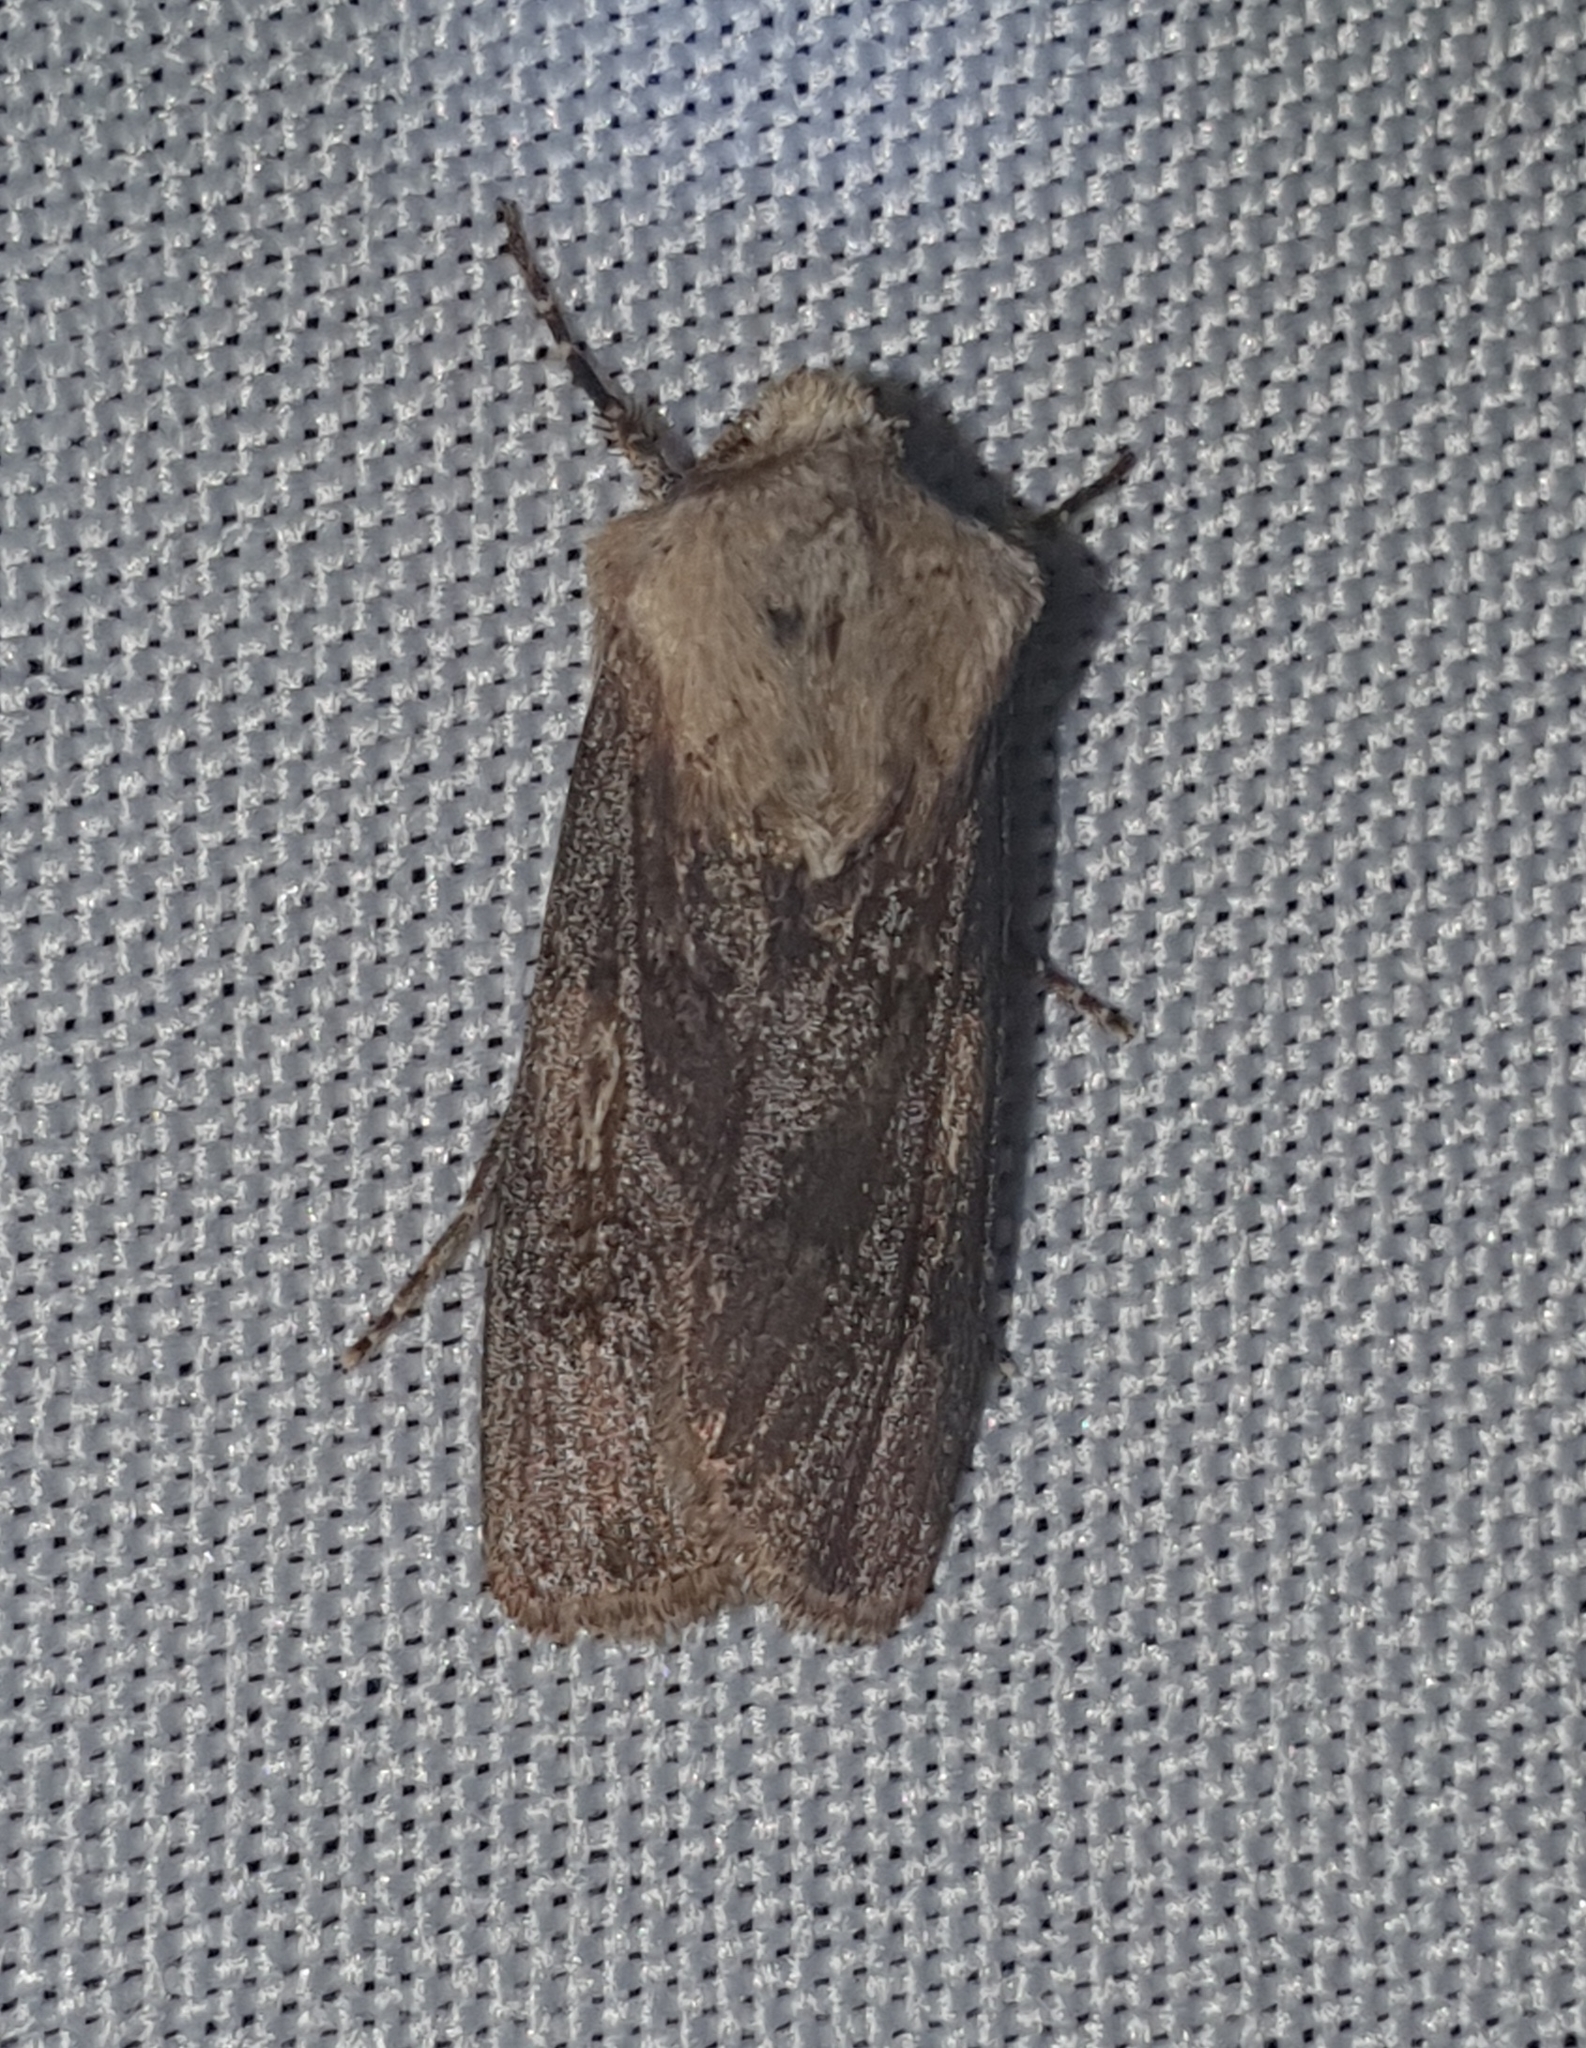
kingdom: Animalia
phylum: Arthropoda
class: Insecta
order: Lepidoptera
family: Noctuidae
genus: Agrotis
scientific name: Agrotis puta
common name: Shuttle-shaped dart
